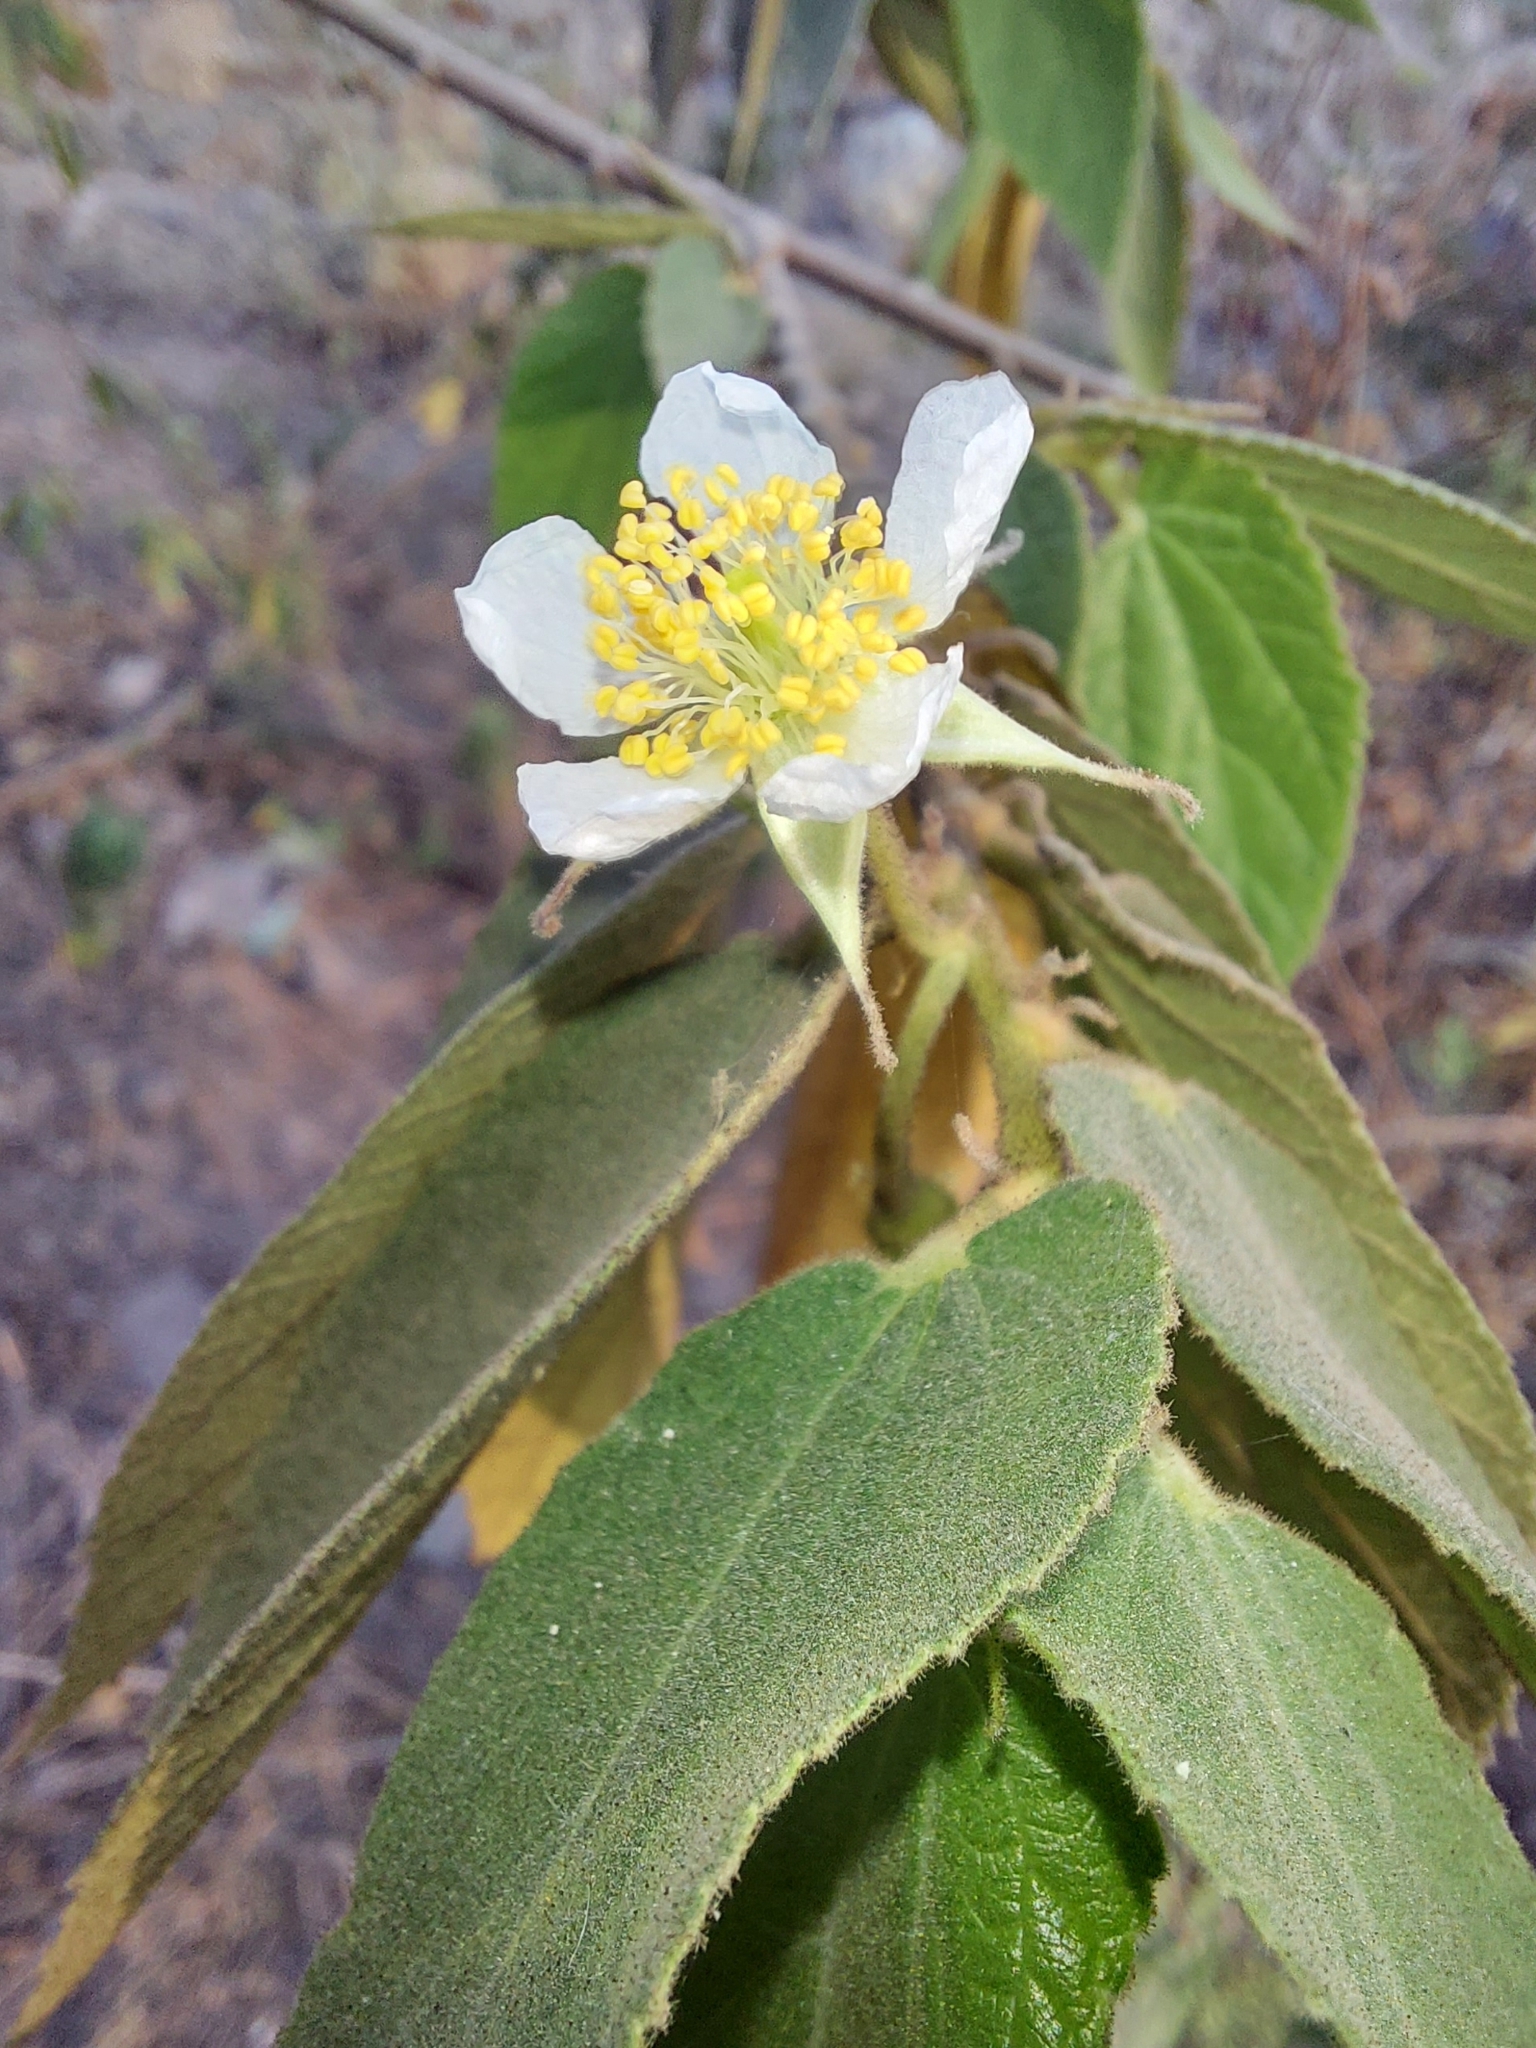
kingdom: Plantae
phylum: Tracheophyta
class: Magnoliopsida
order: Malvales
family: Muntingiaceae
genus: Muntingia
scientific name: Muntingia calabura
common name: Strawberrytree
